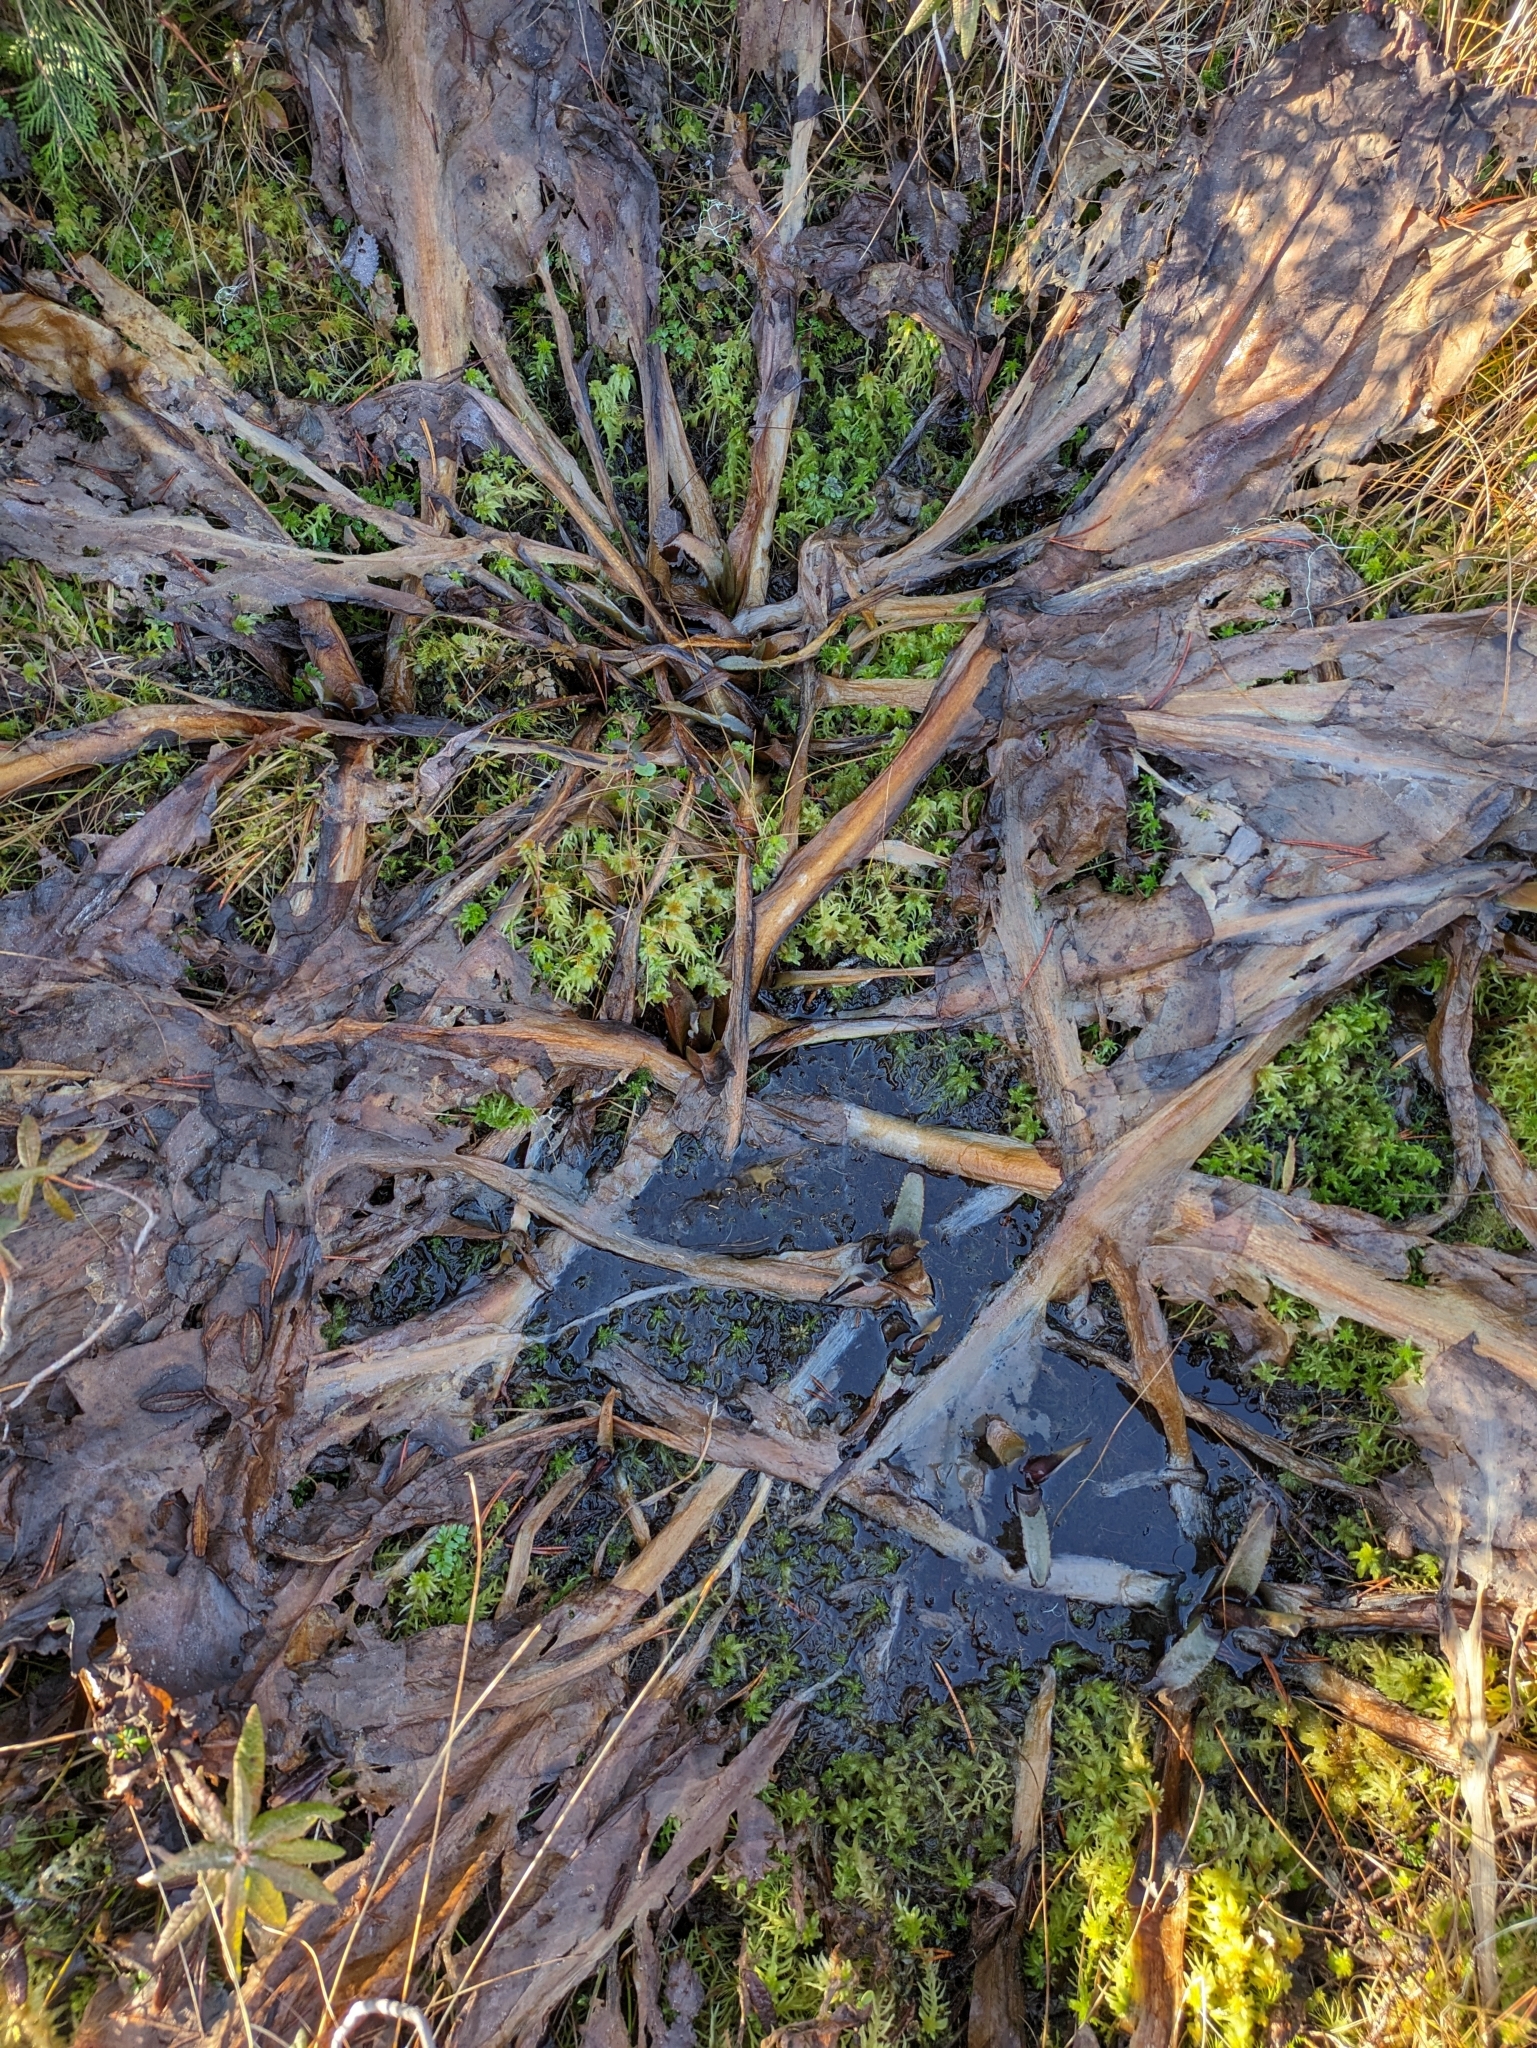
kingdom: Plantae
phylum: Tracheophyta
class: Liliopsida
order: Alismatales
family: Araceae
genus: Lysichiton
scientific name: Lysichiton americanus
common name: American skunk cabbage
